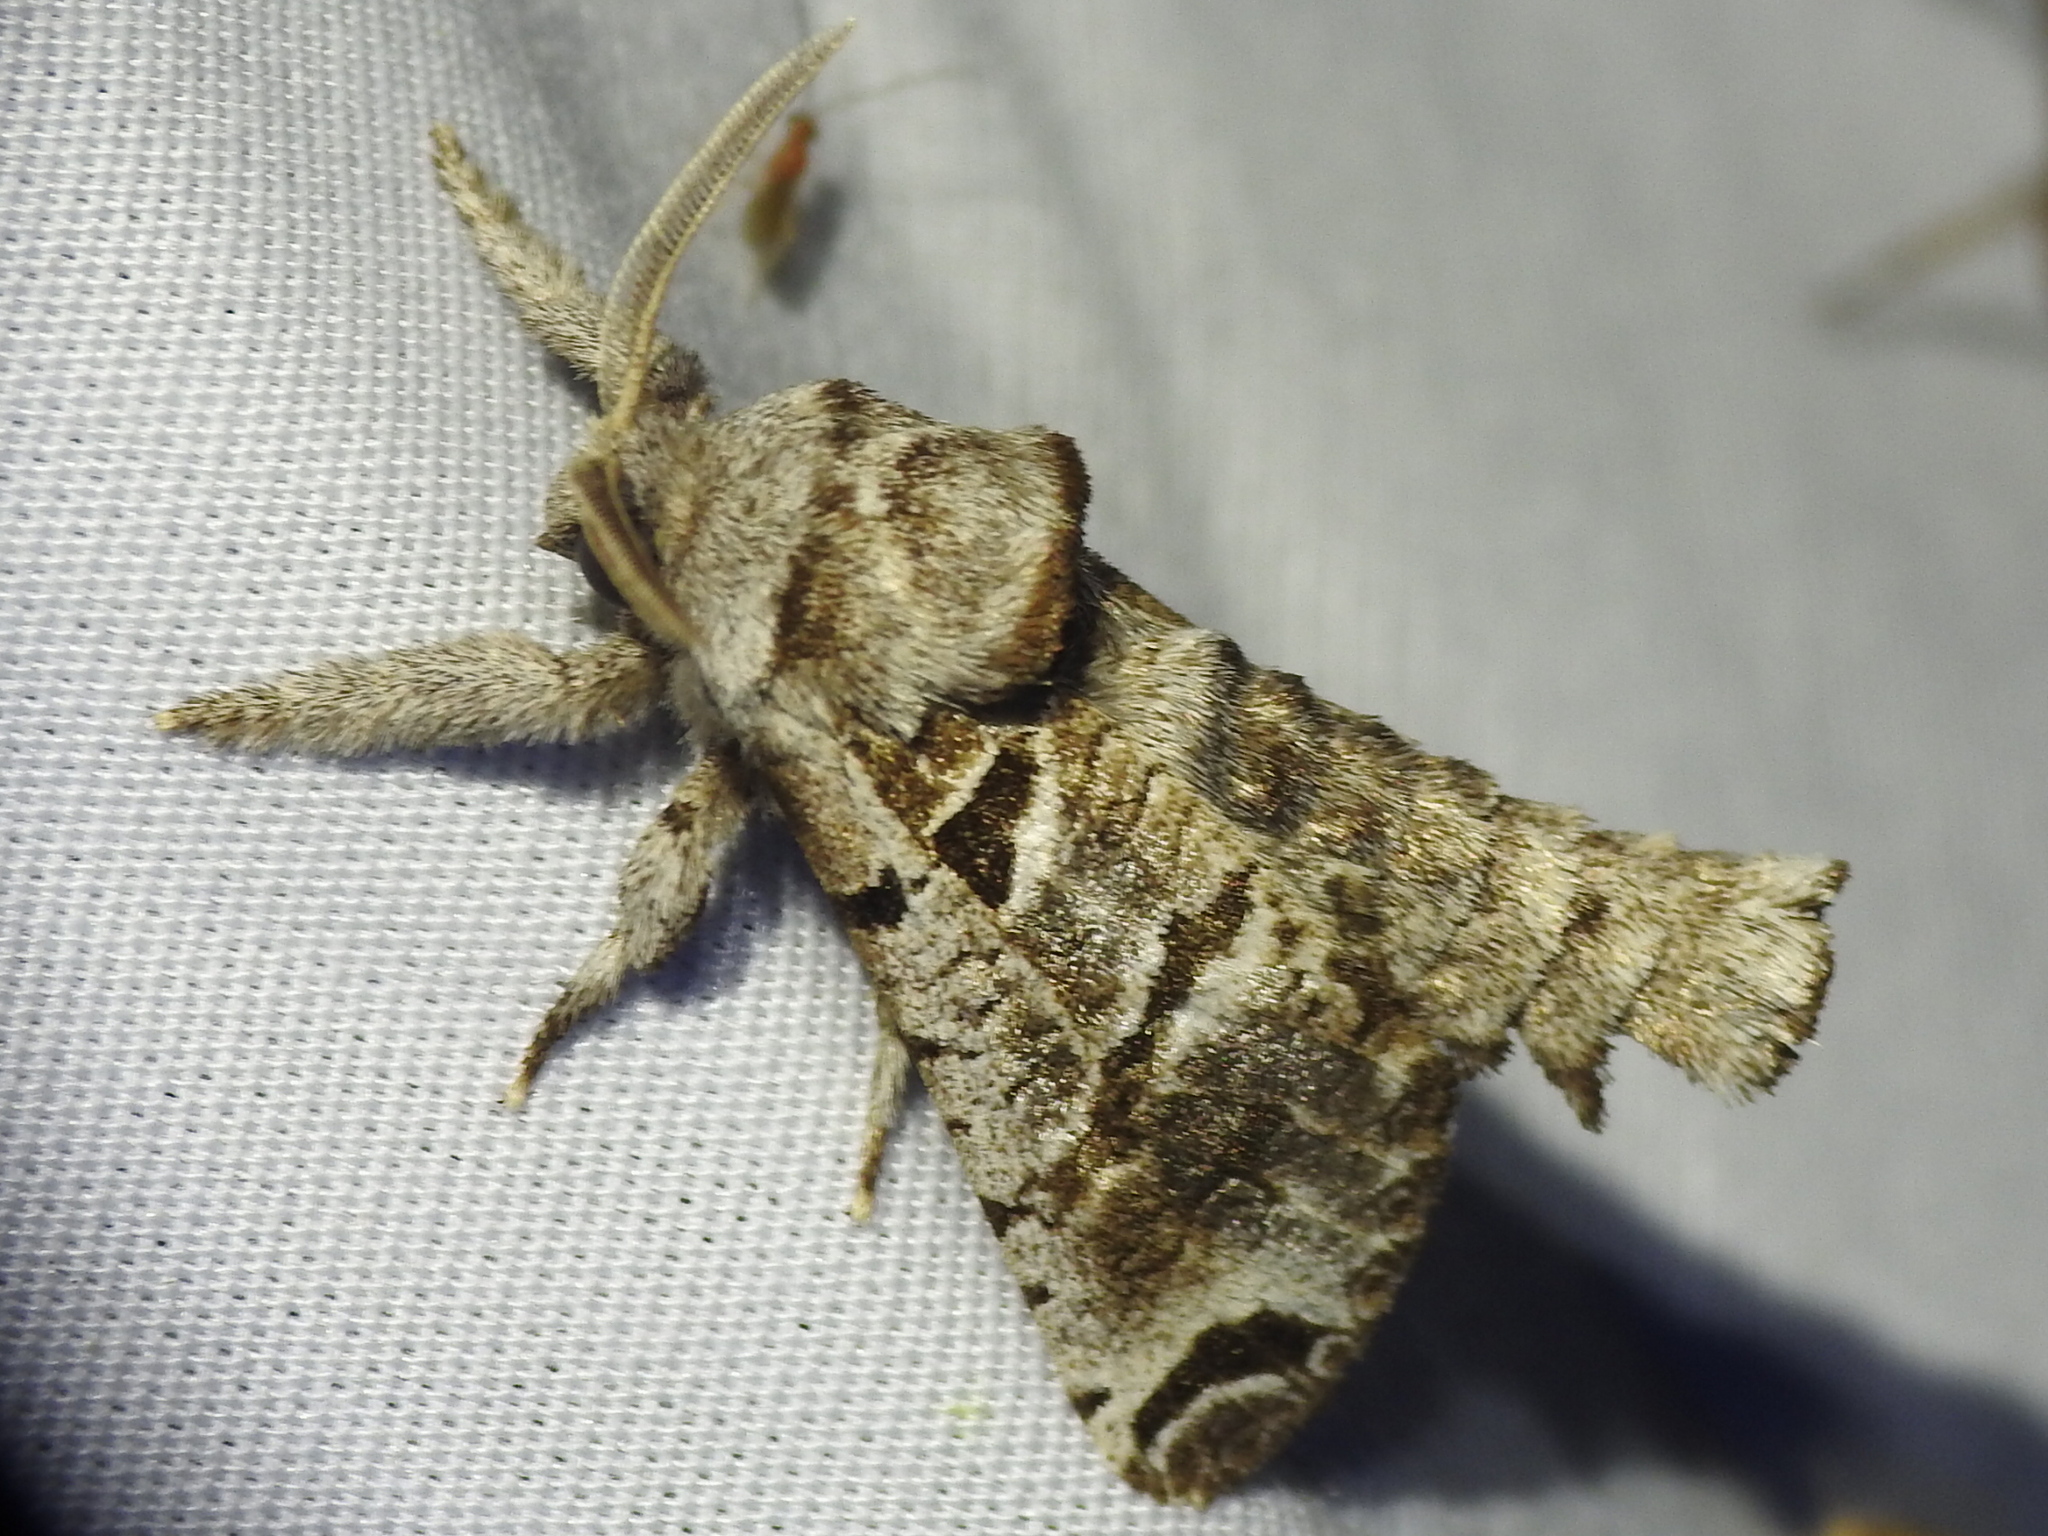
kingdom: Animalia
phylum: Arthropoda
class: Insecta
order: Lepidoptera
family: Cossidae
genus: Inguromorpha
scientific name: Inguromorpha
